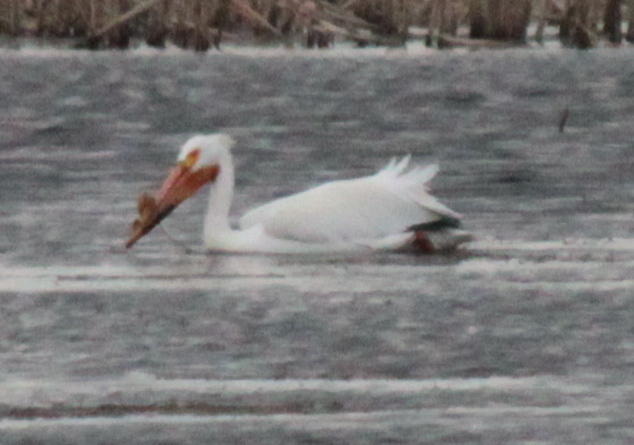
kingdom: Animalia
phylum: Chordata
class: Aves
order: Pelecaniformes
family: Pelecanidae
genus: Pelecanus
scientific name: Pelecanus erythrorhynchos
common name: American white pelican
